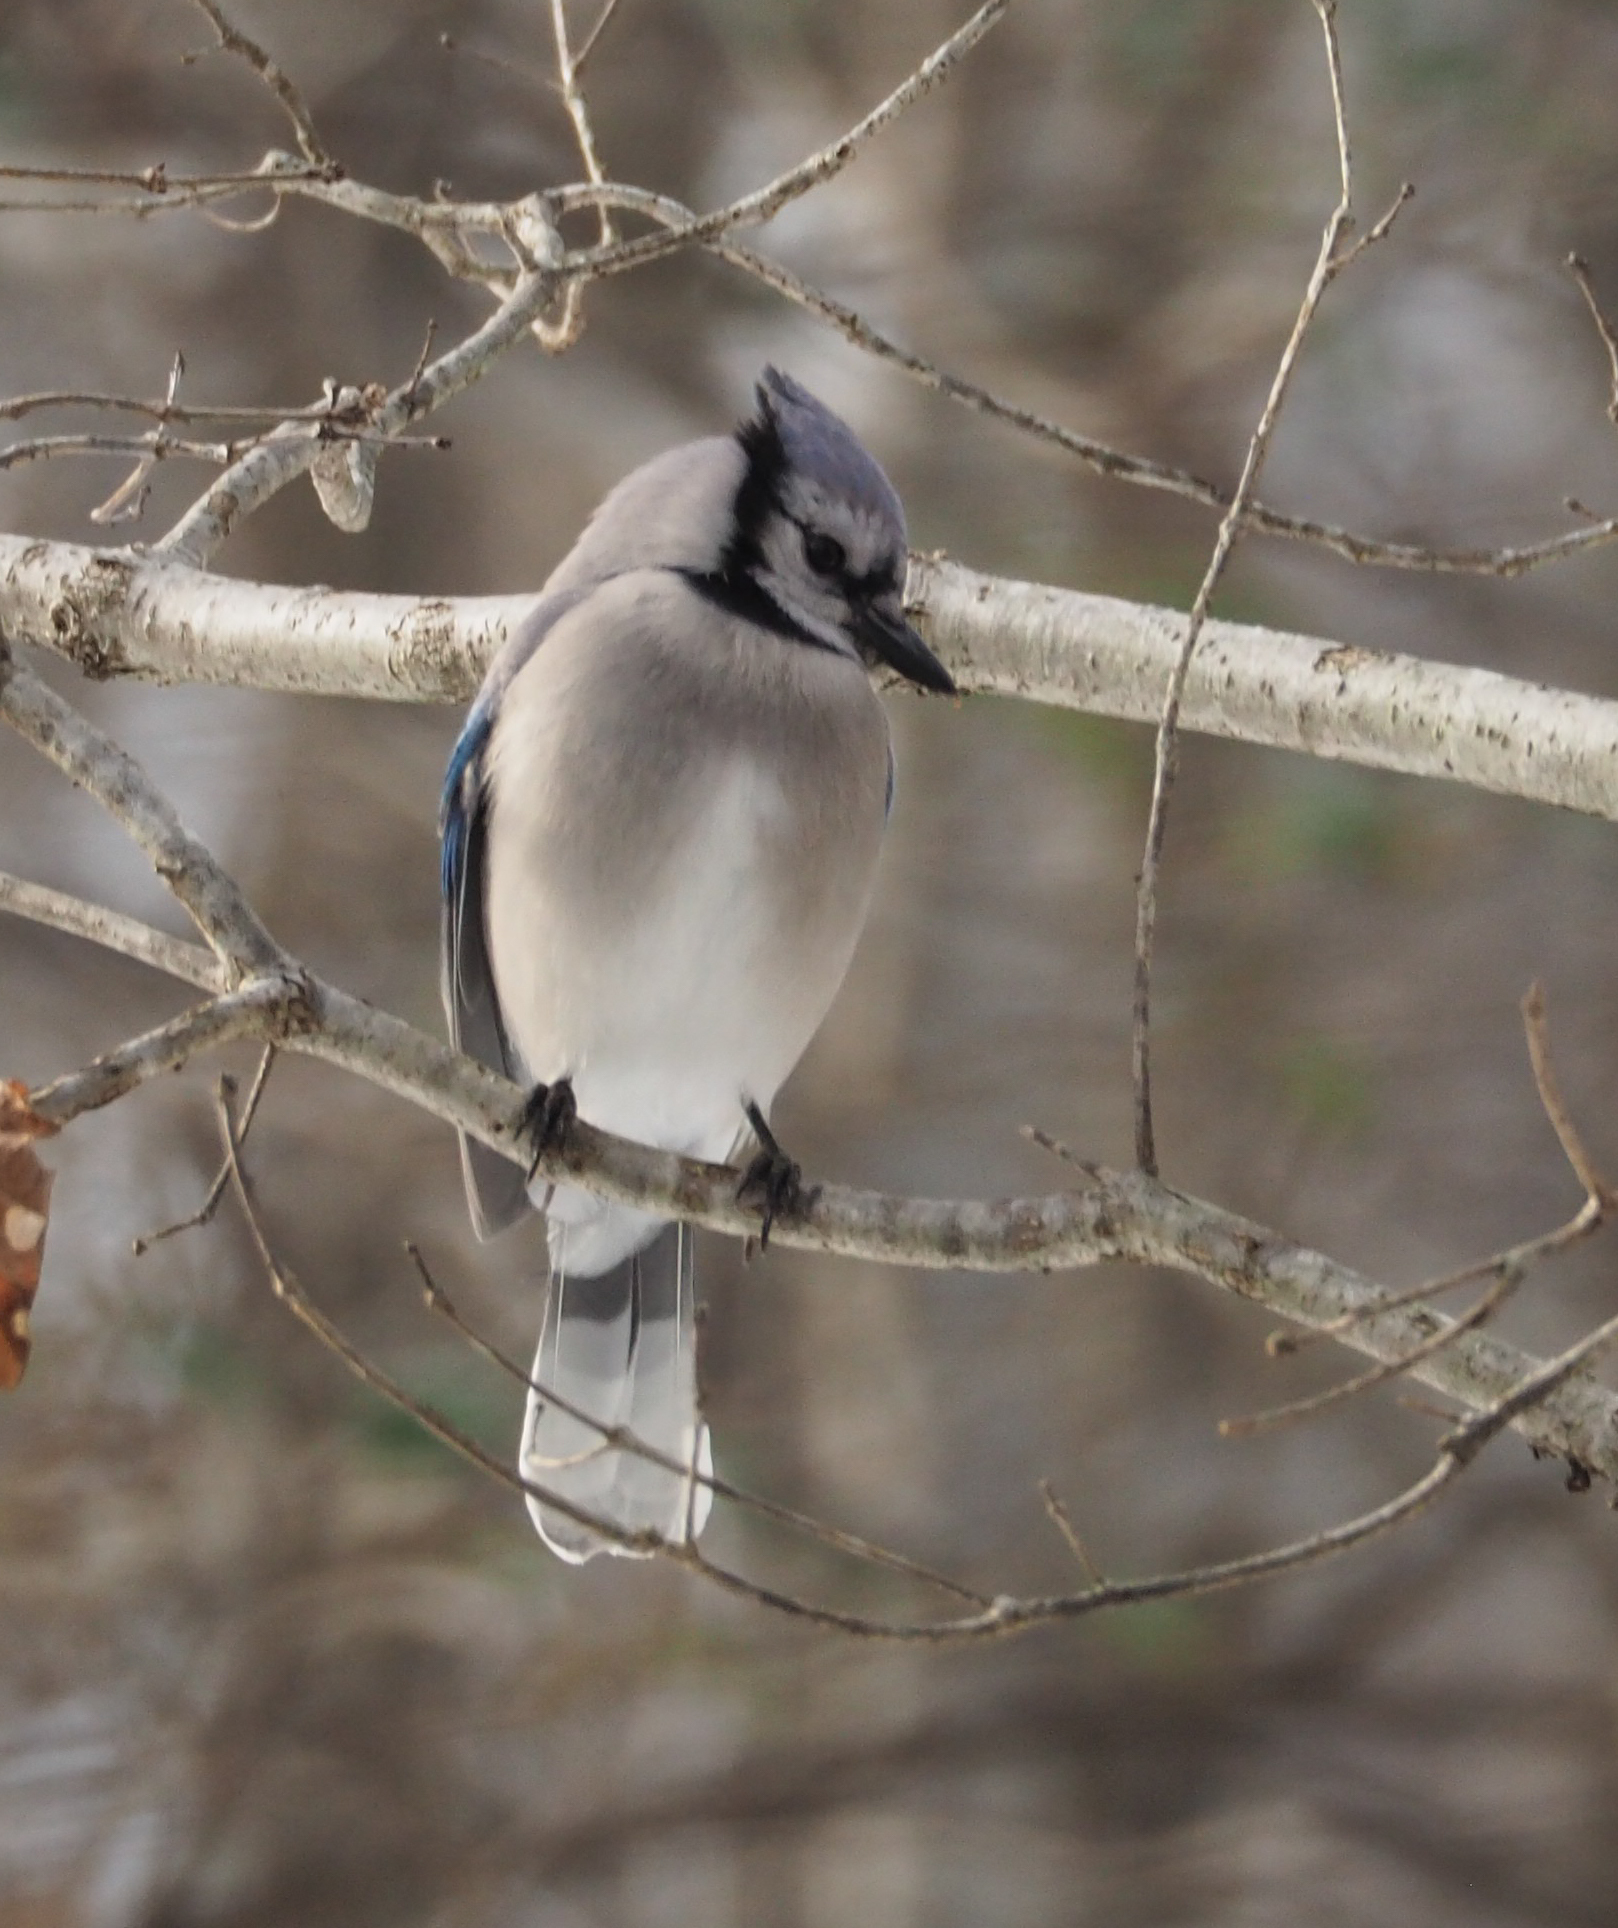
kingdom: Animalia
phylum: Chordata
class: Aves
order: Passeriformes
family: Corvidae
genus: Cyanocitta
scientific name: Cyanocitta cristata
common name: Blue jay
